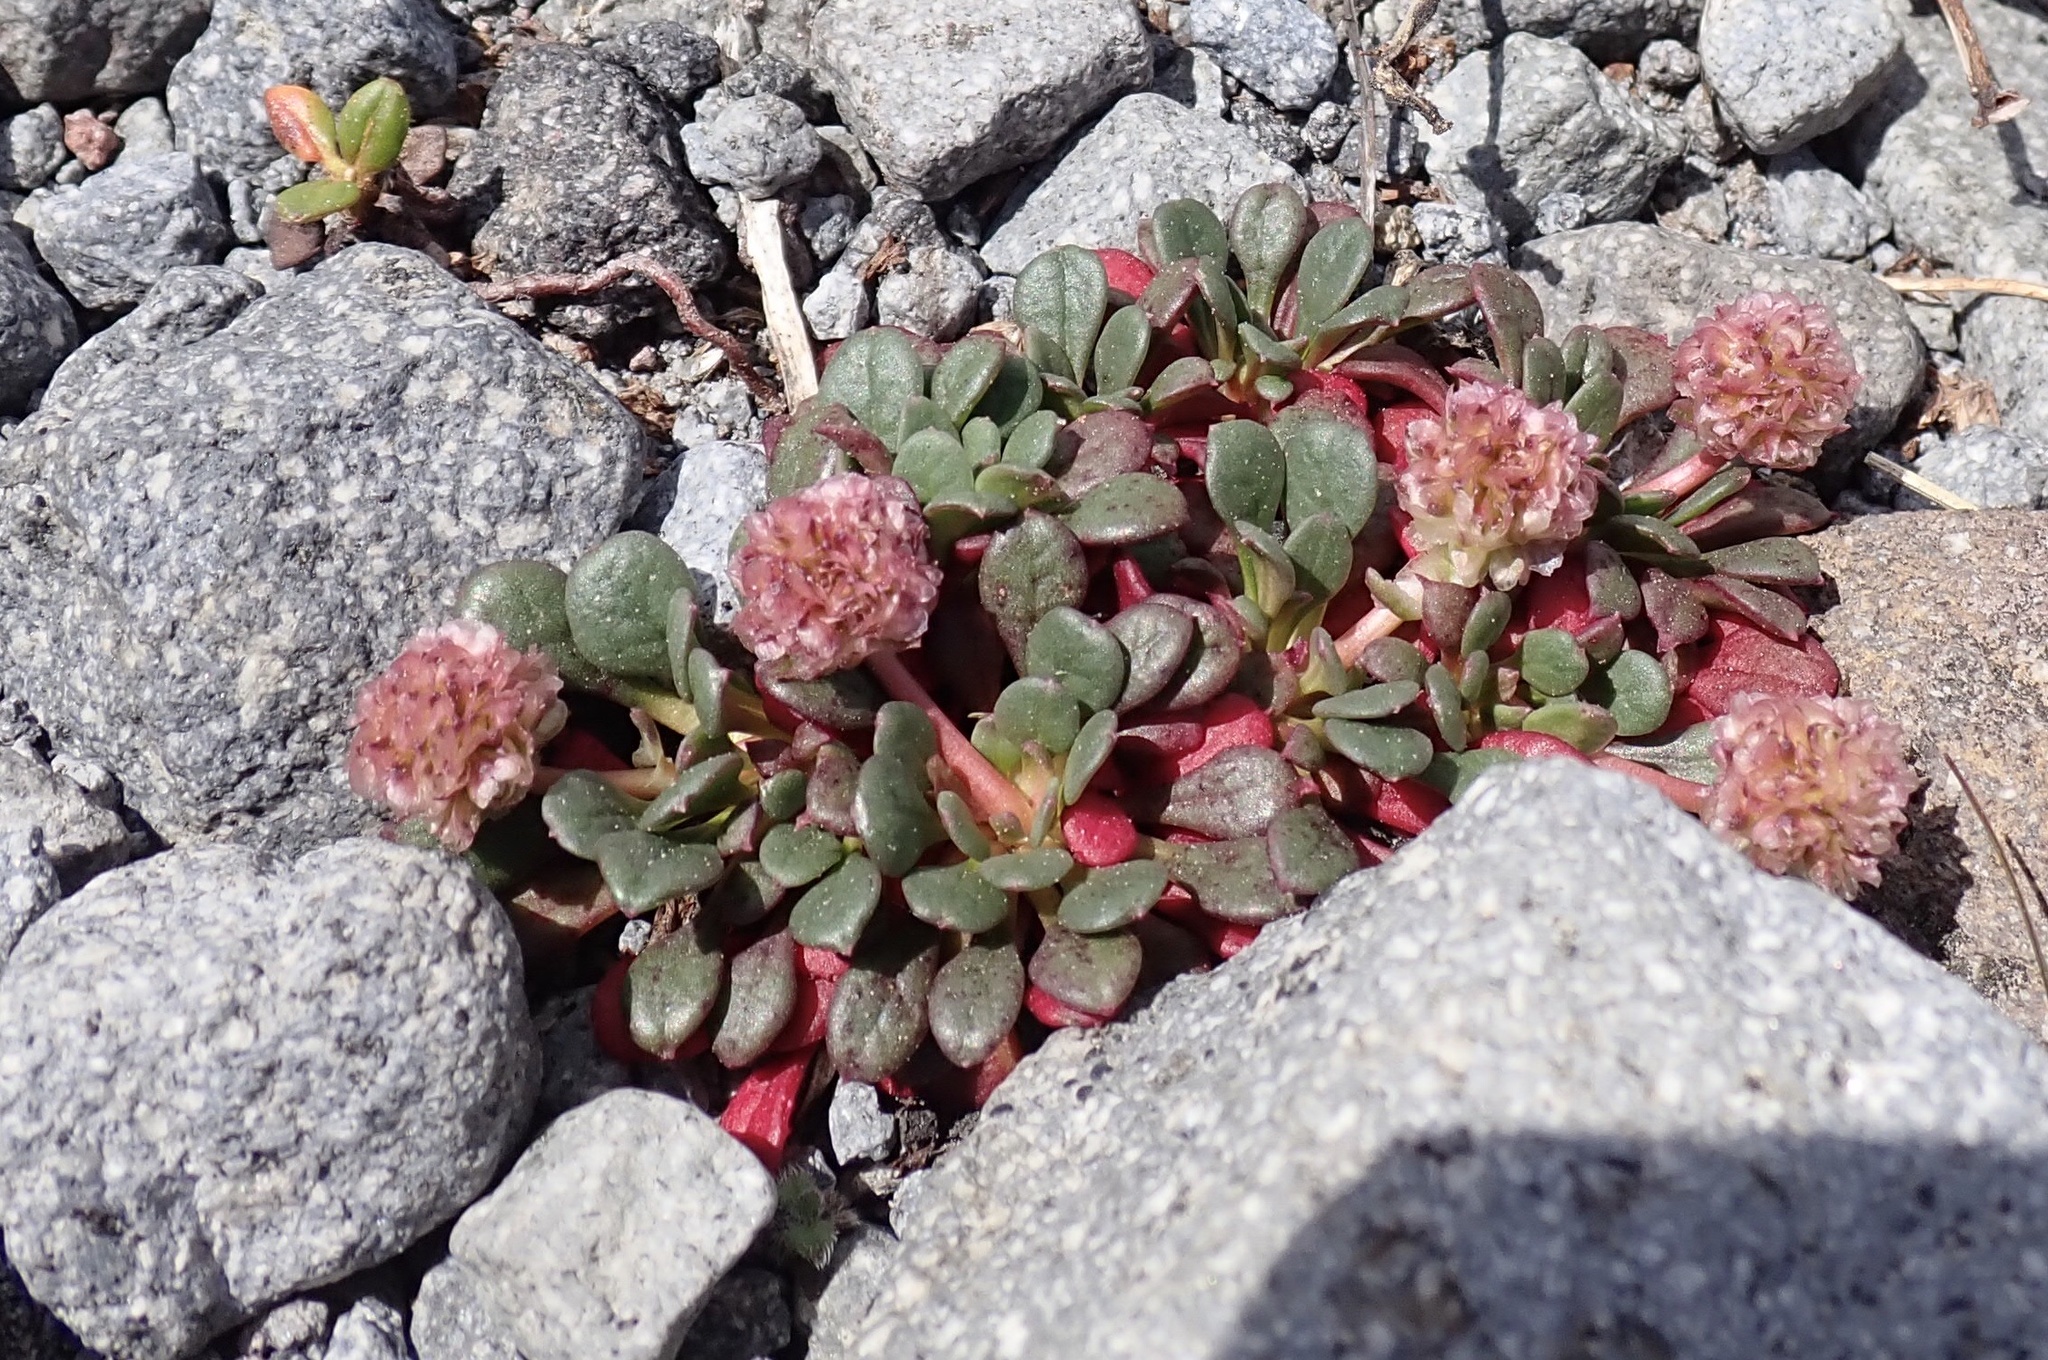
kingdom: Plantae
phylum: Tracheophyta
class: Magnoliopsida
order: Caryophyllales
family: Montiaceae
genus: Calyptridium
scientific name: Calyptridium umbellatum
